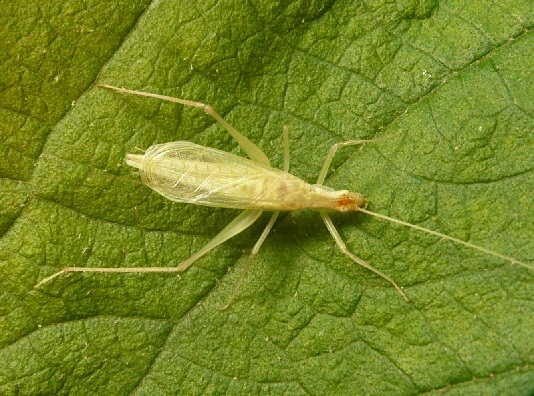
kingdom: Animalia
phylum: Arthropoda
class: Insecta
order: Orthoptera
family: Gryllidae
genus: Oecanthus
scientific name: Oecanthus niveus
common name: Narrow-winged tree cricket
